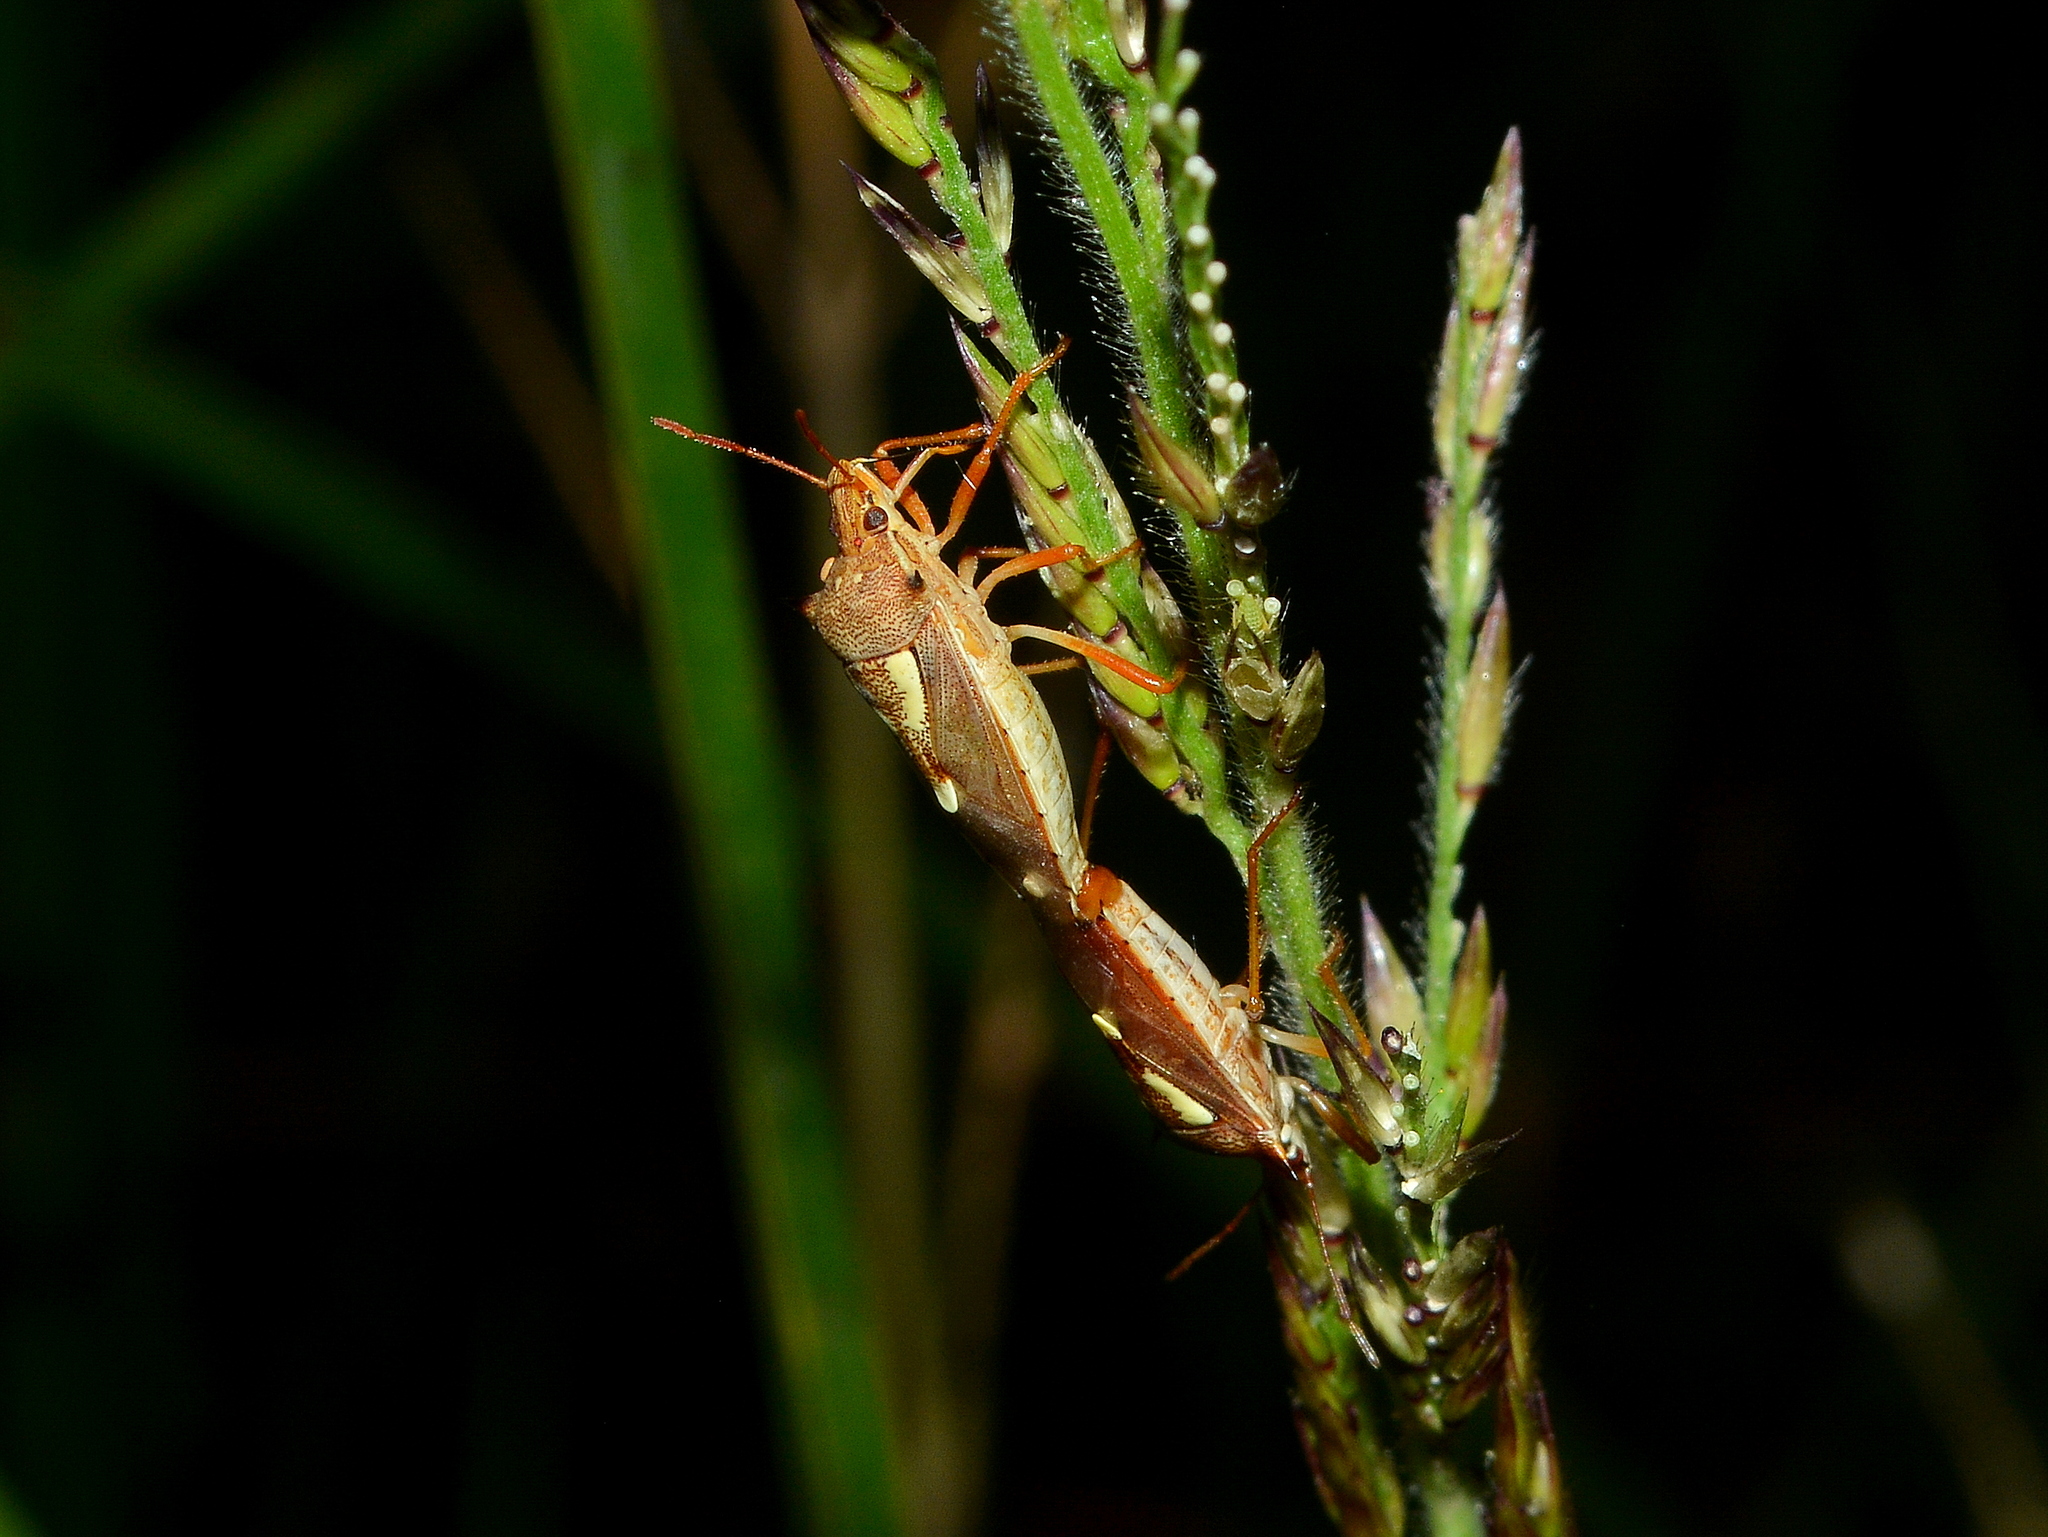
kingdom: Animalia
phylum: Arthropoda
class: Insecta
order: Hemiptera
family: Pentatomidae
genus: Oebalus
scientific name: Oebalus ypsilongriseus
